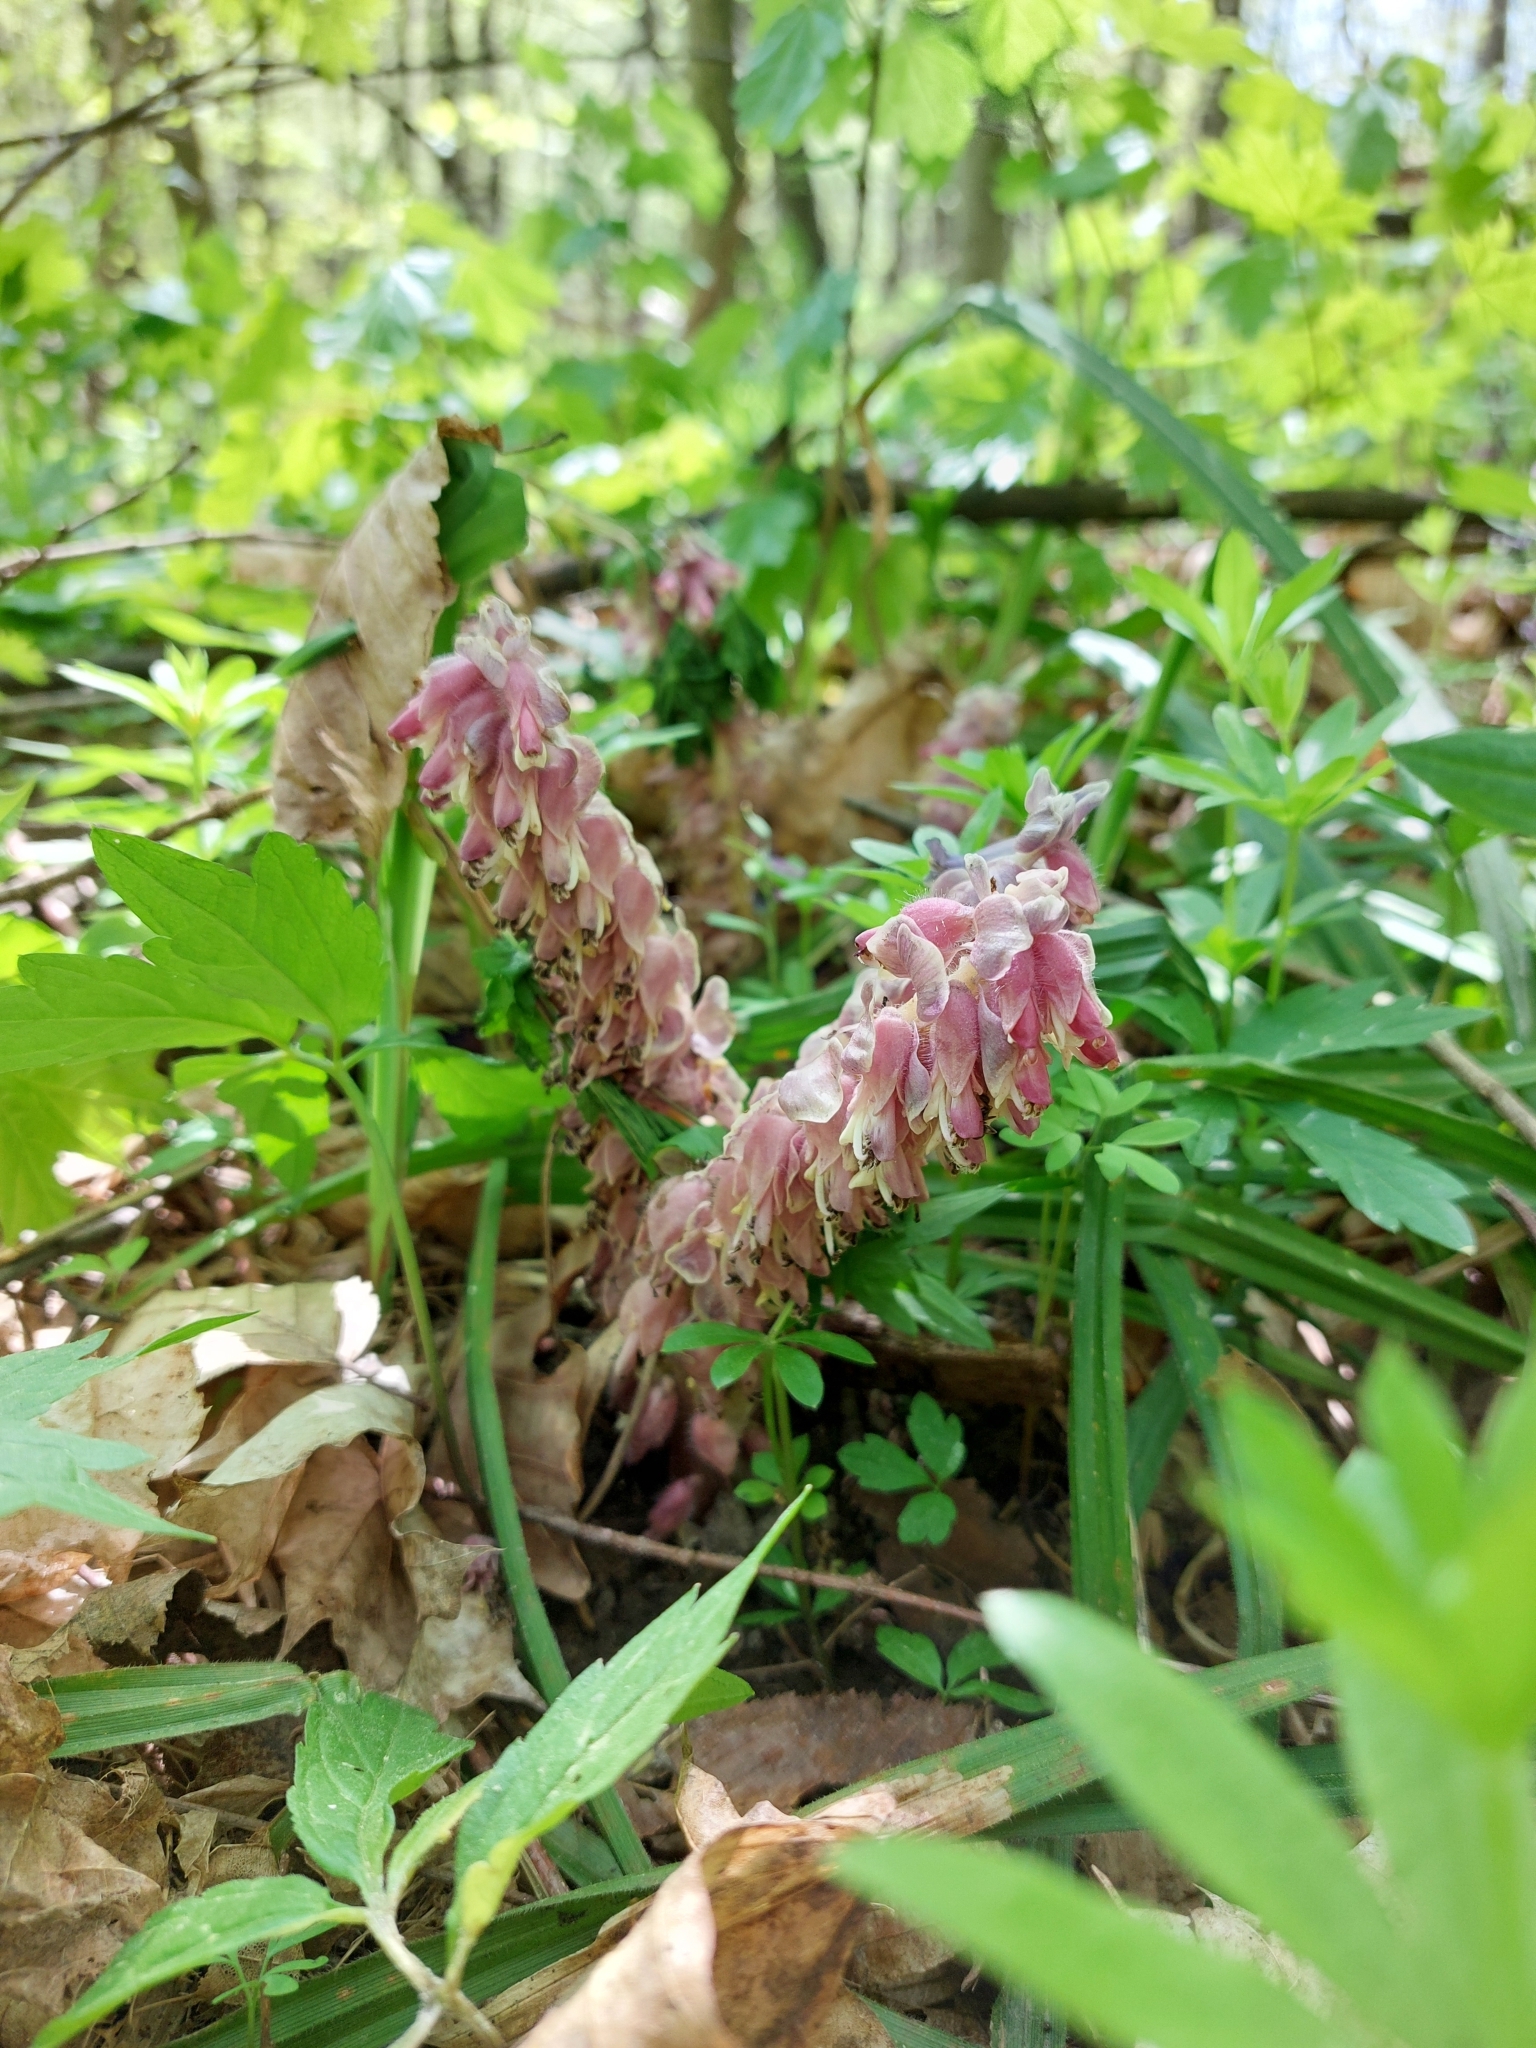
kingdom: Plantae
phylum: Tracheophyta
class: Magnoliopsida
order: Lamiales
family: Orobanchaceae
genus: Lathraea
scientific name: Lathraea squamaria
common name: Toothwort
